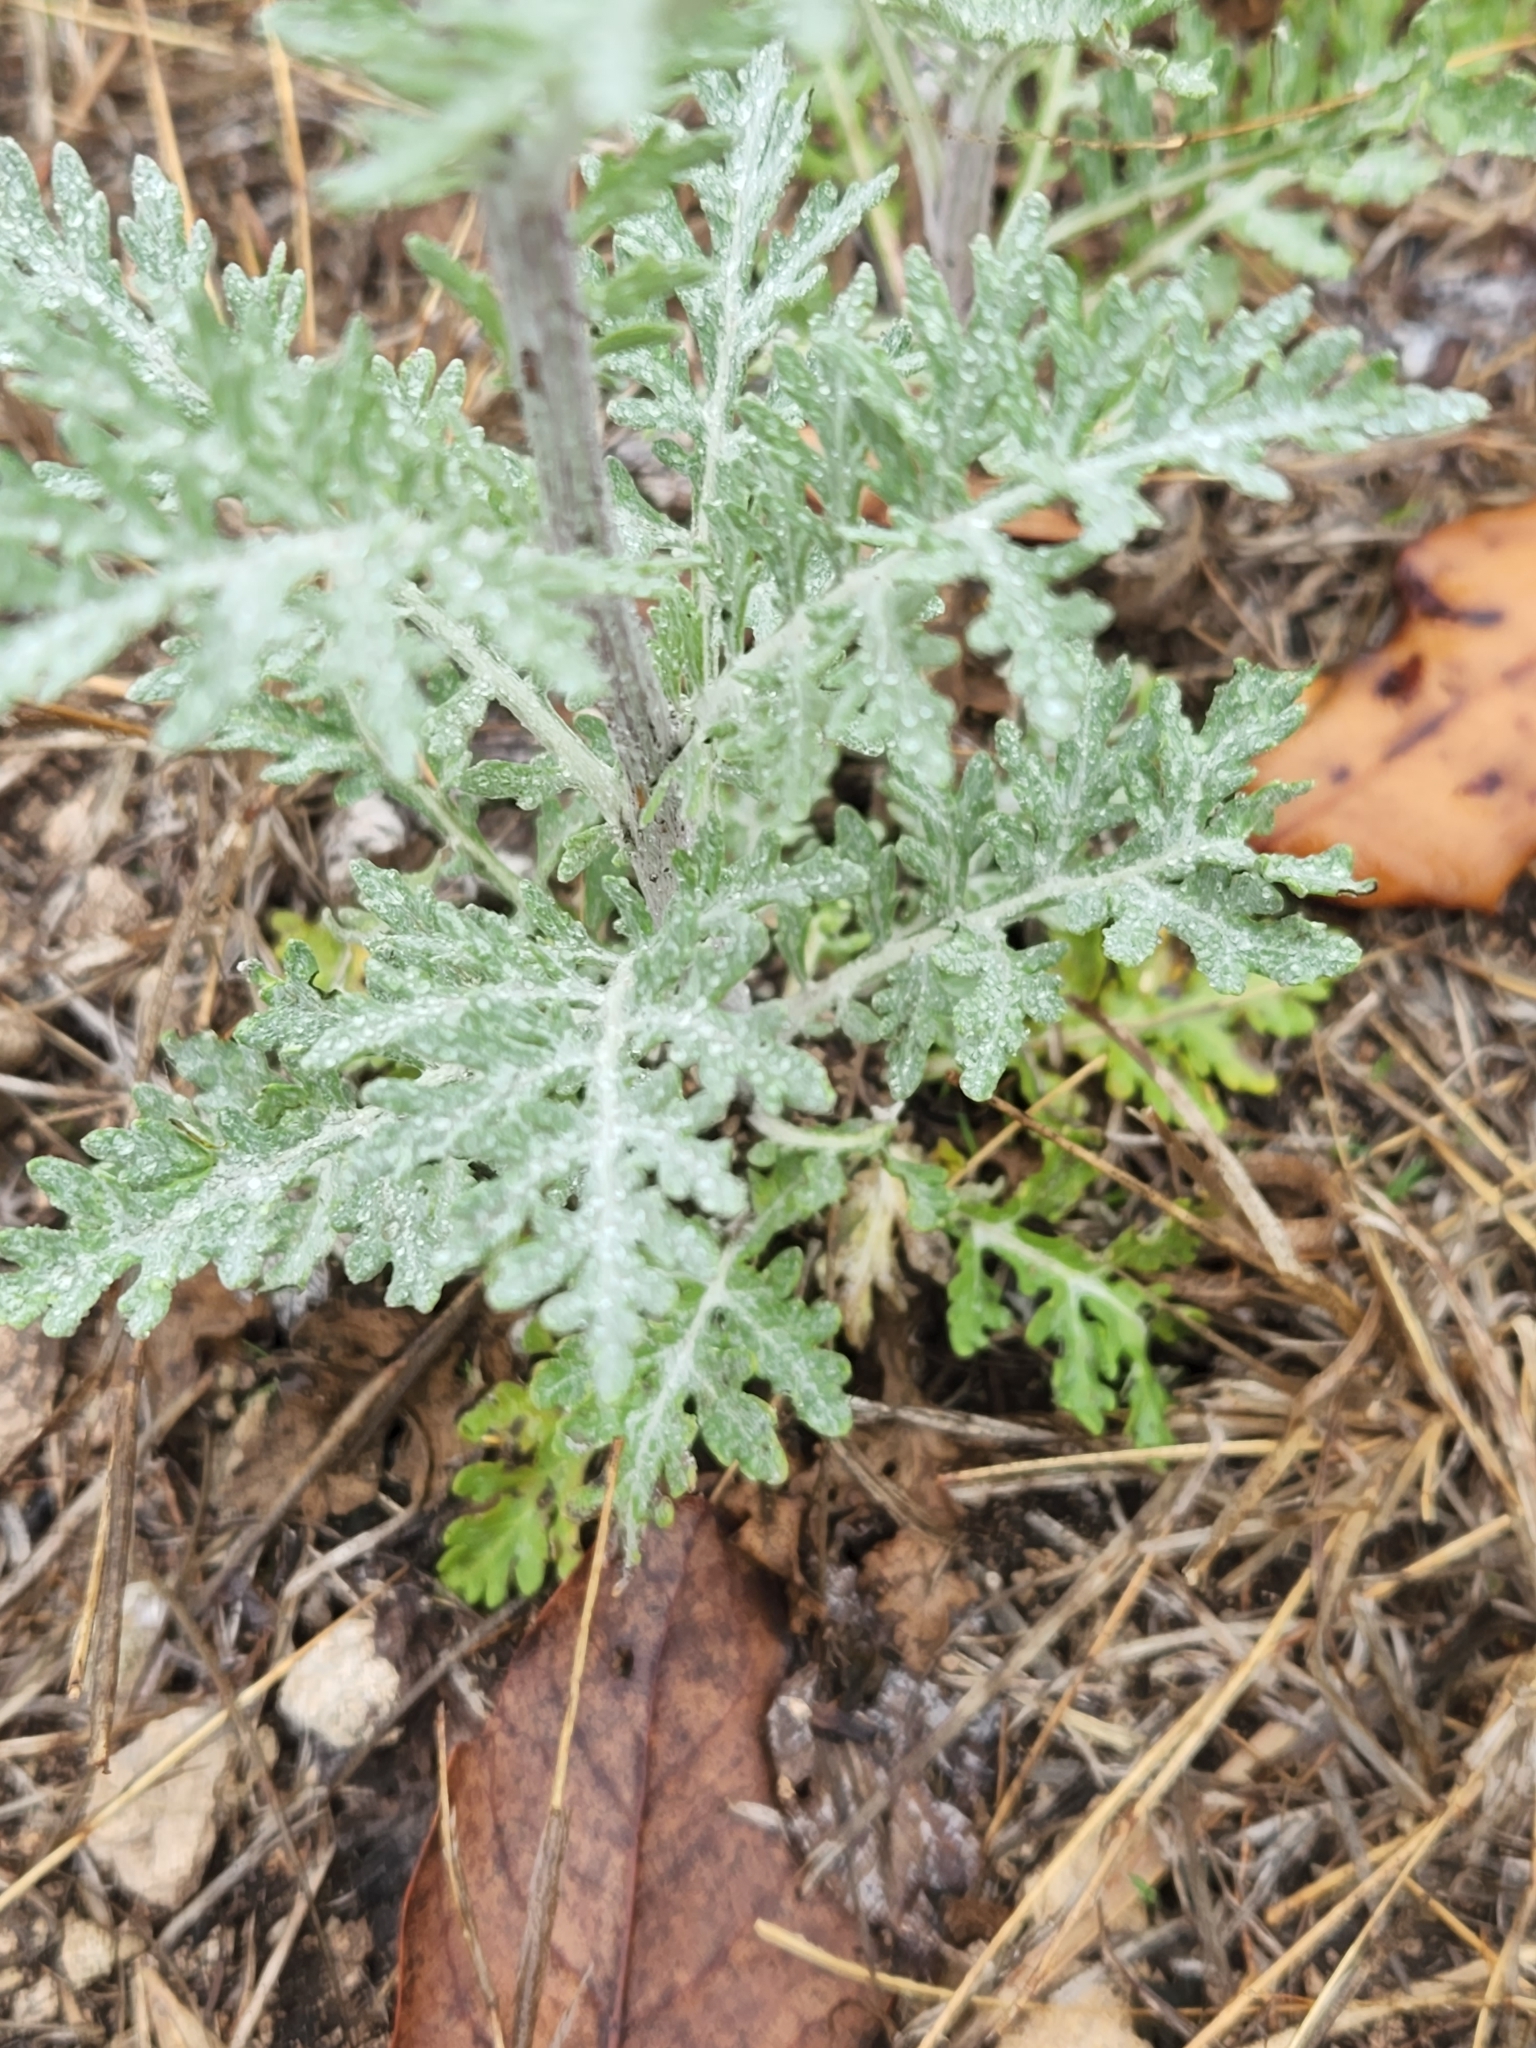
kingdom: Plantae
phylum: Tracheophyta
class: Magnoliopsida
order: Asterales
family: Asteraceae
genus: Hymenopappus
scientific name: Hymenopappus scabiosaeus
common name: Carolina woollywhite
